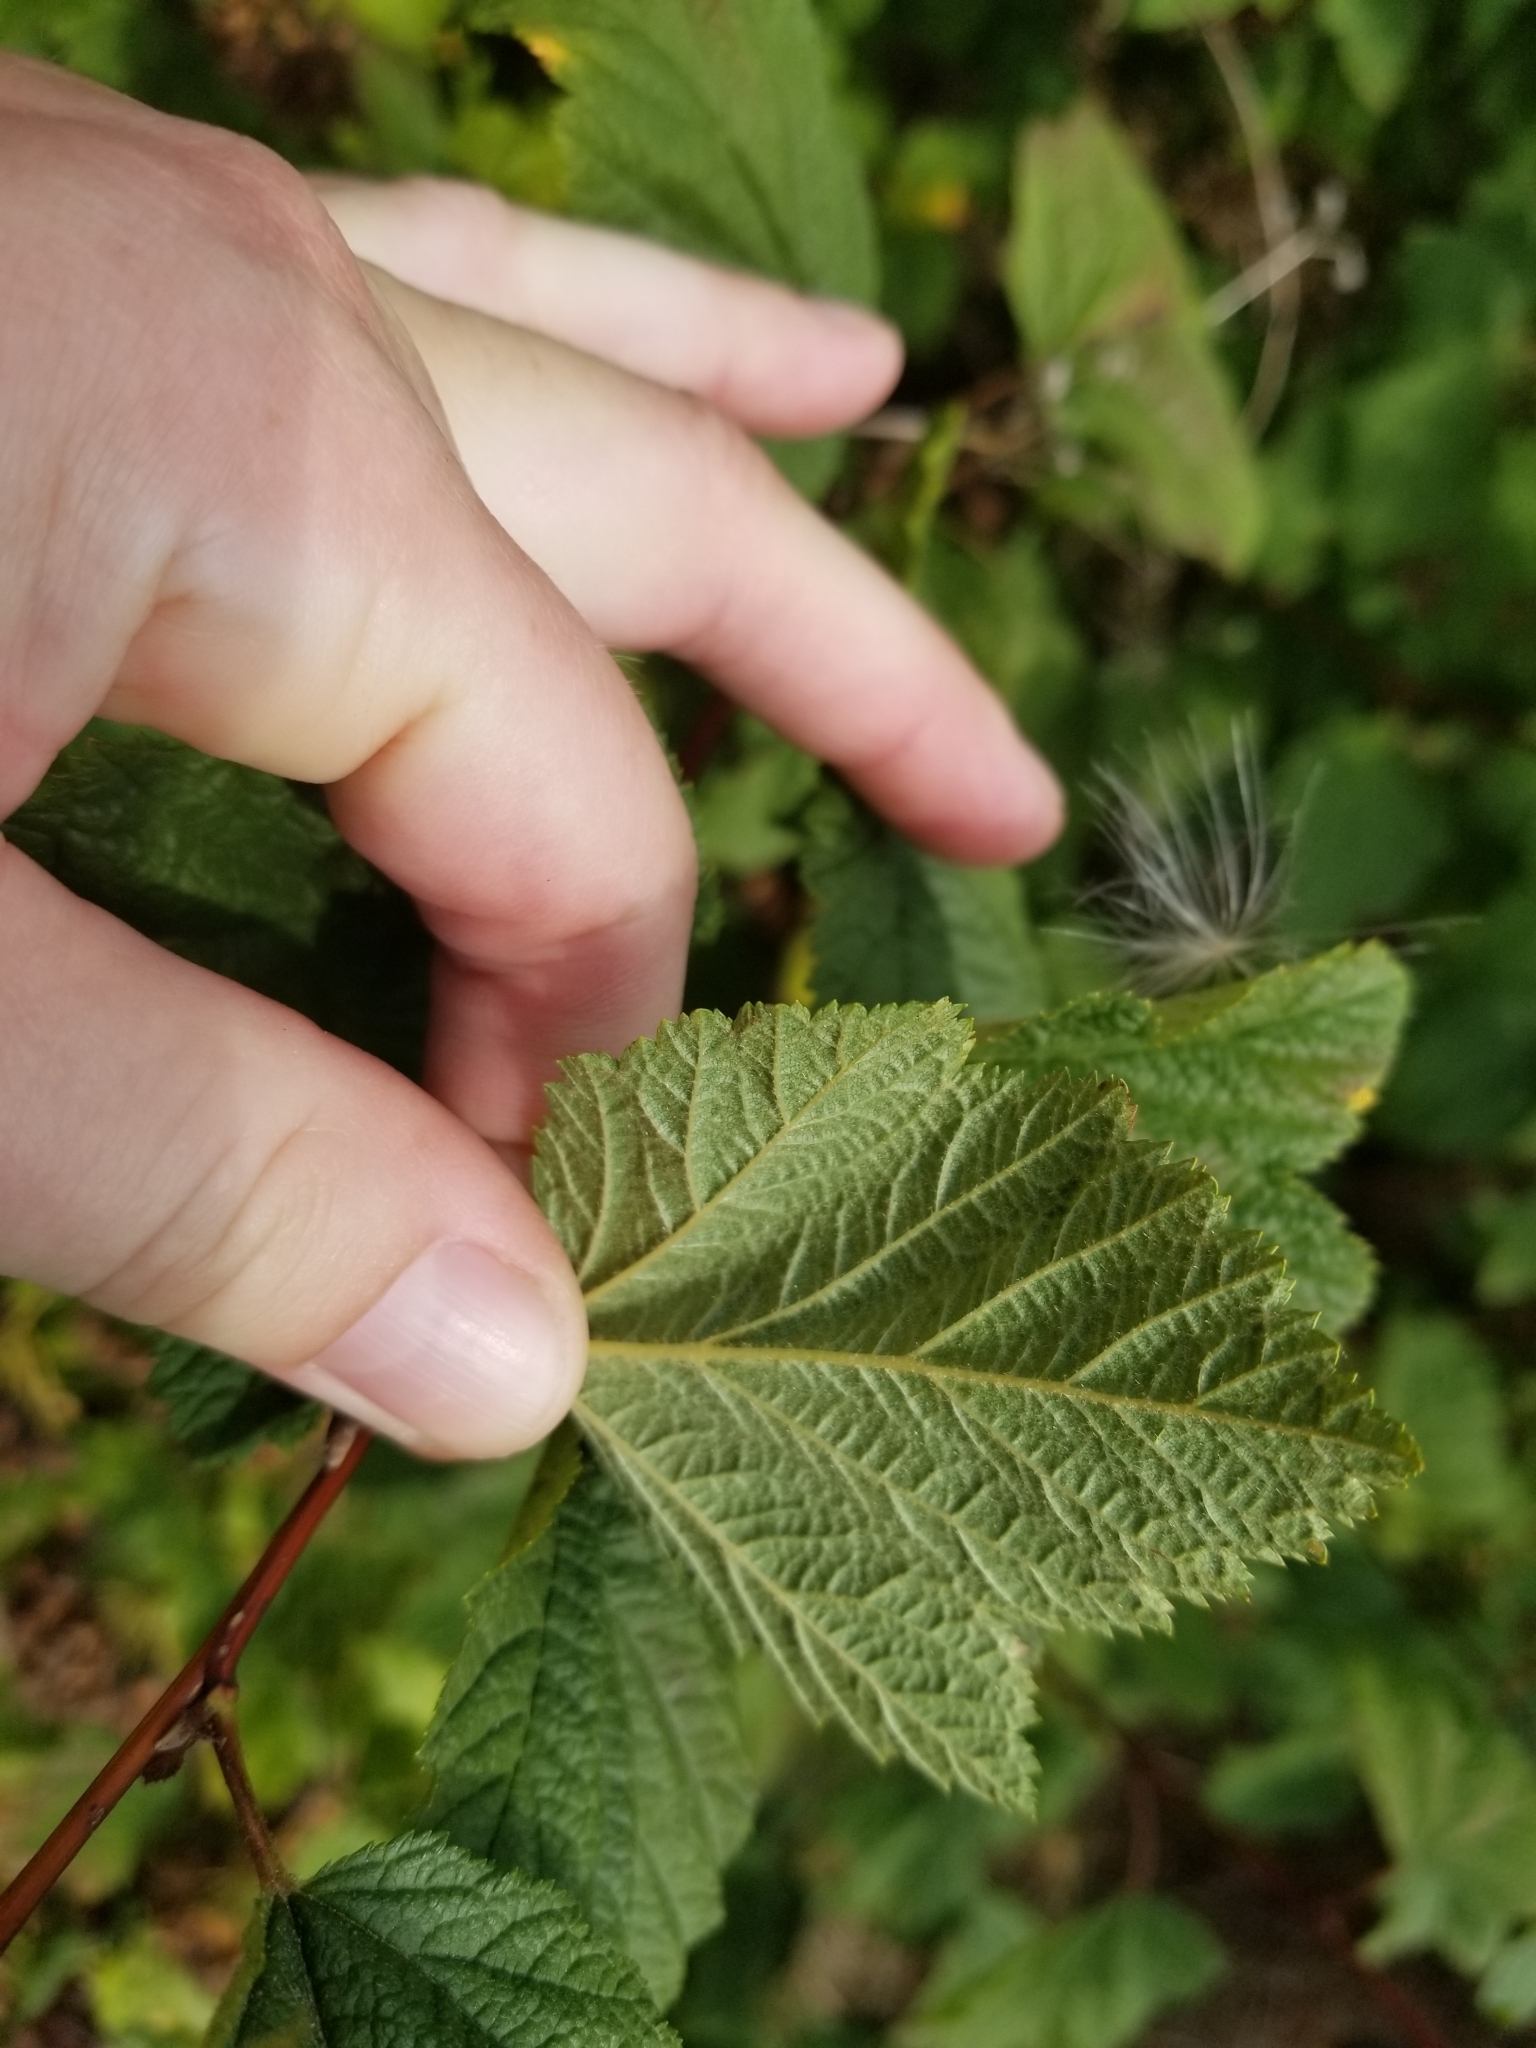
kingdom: Plantae
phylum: Tracheophyta
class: Magnoliopsida
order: Rosales
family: Rosaceae
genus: Physocarpus
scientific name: Physocarpus capitatus
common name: Pacific ninebark
